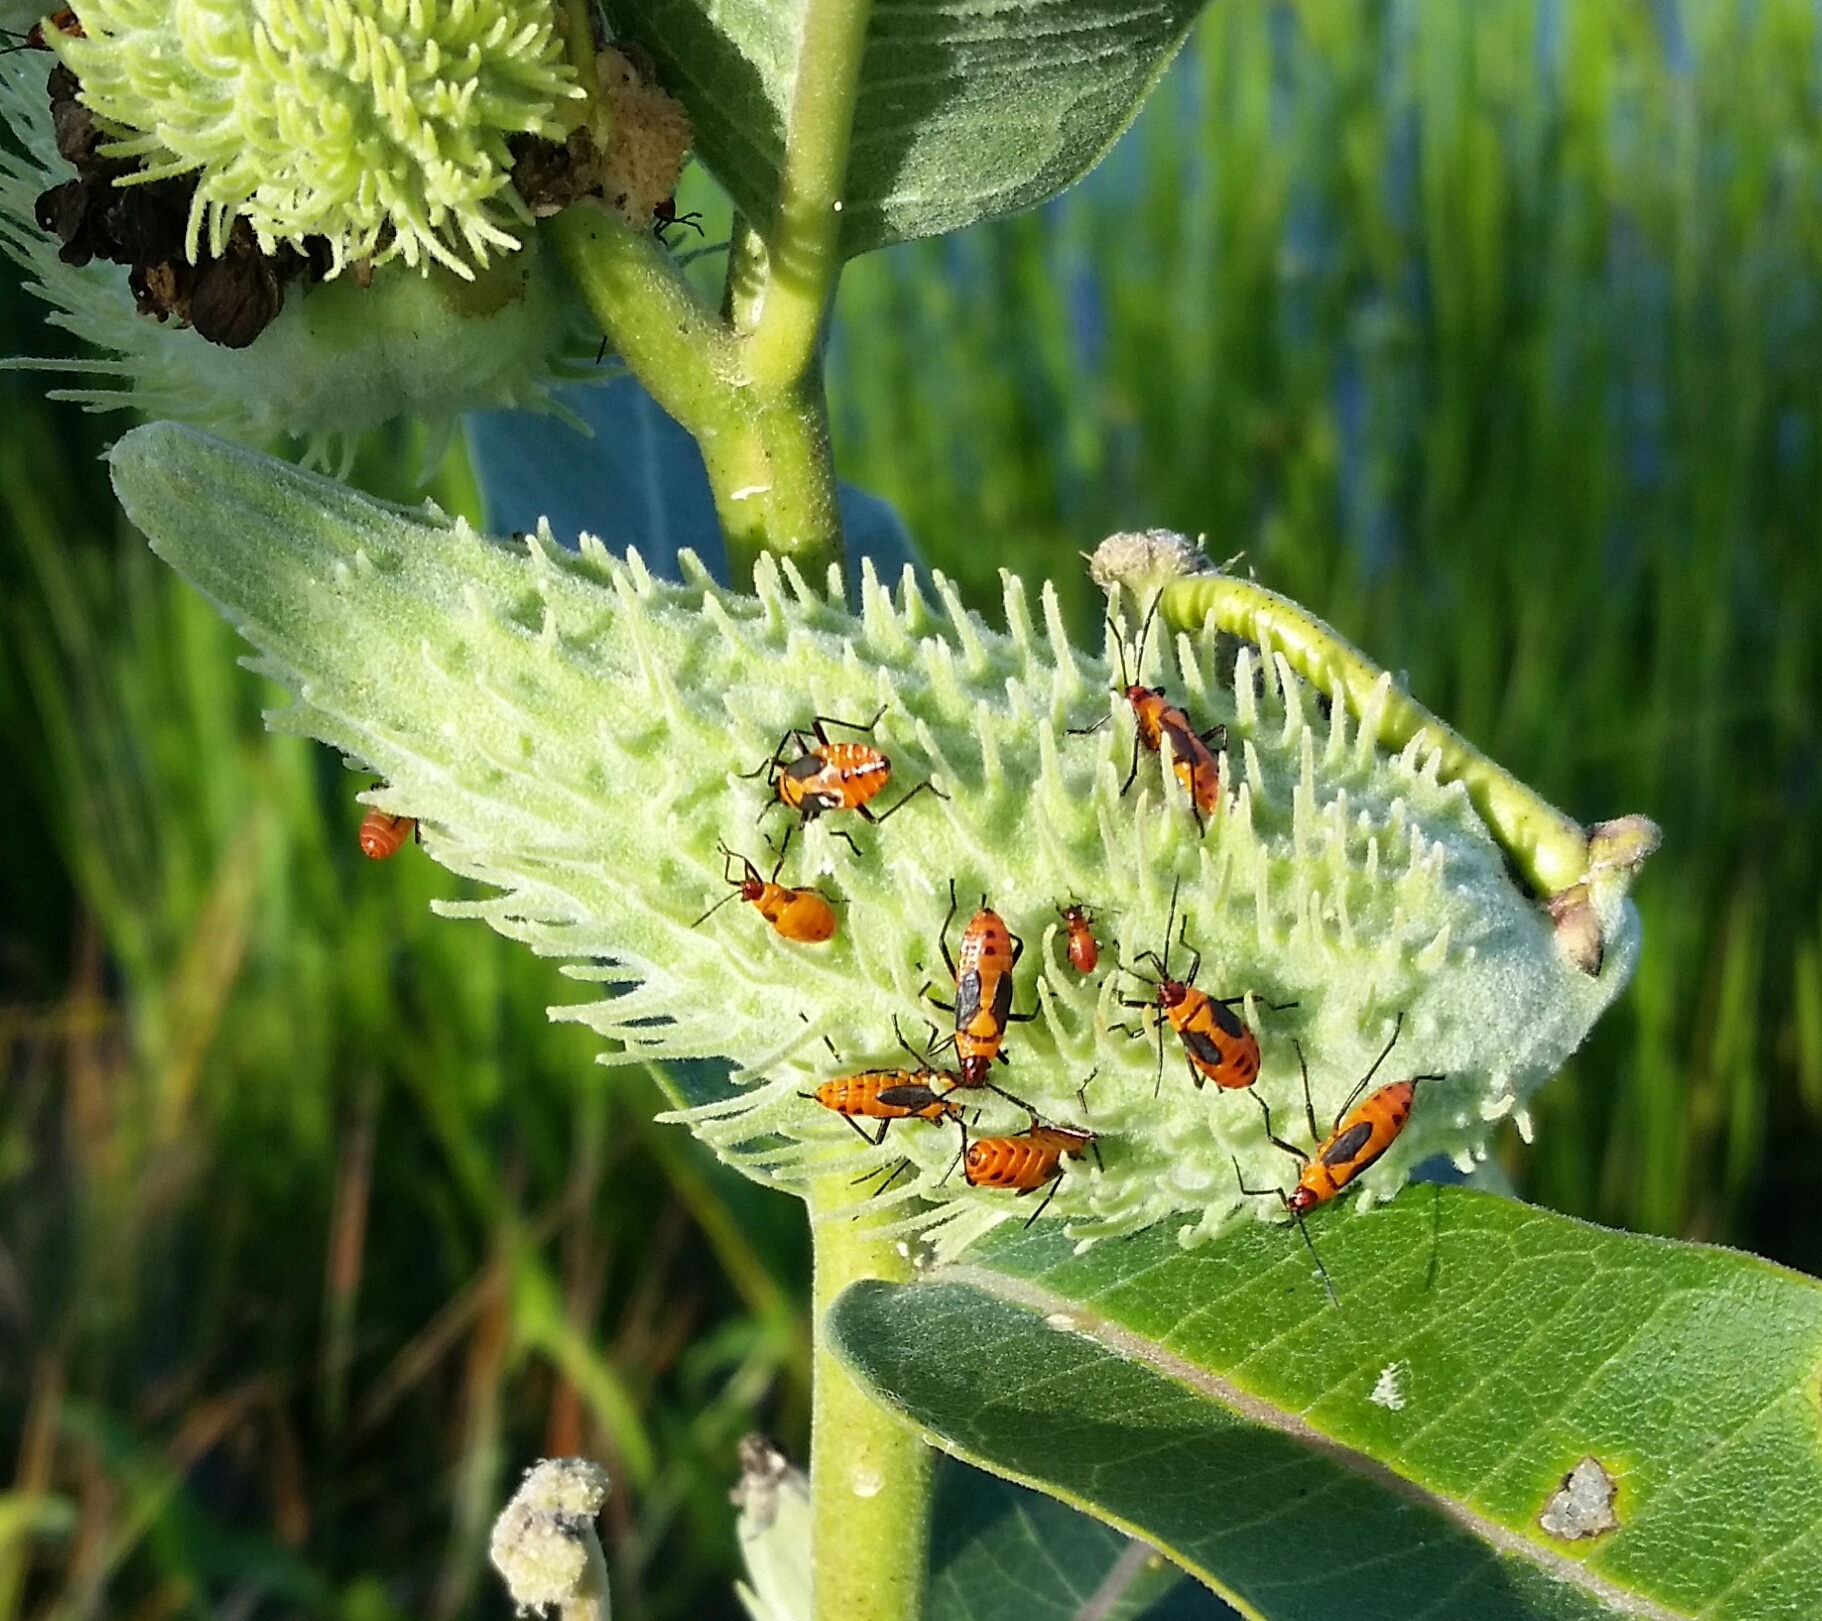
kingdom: Animalia
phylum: Arthropoda
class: Insecta
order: Hemiptera
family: Lygaeidae
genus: Oncopeltus
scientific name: Oncopeltus fasciatus
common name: Large milkweed bug
